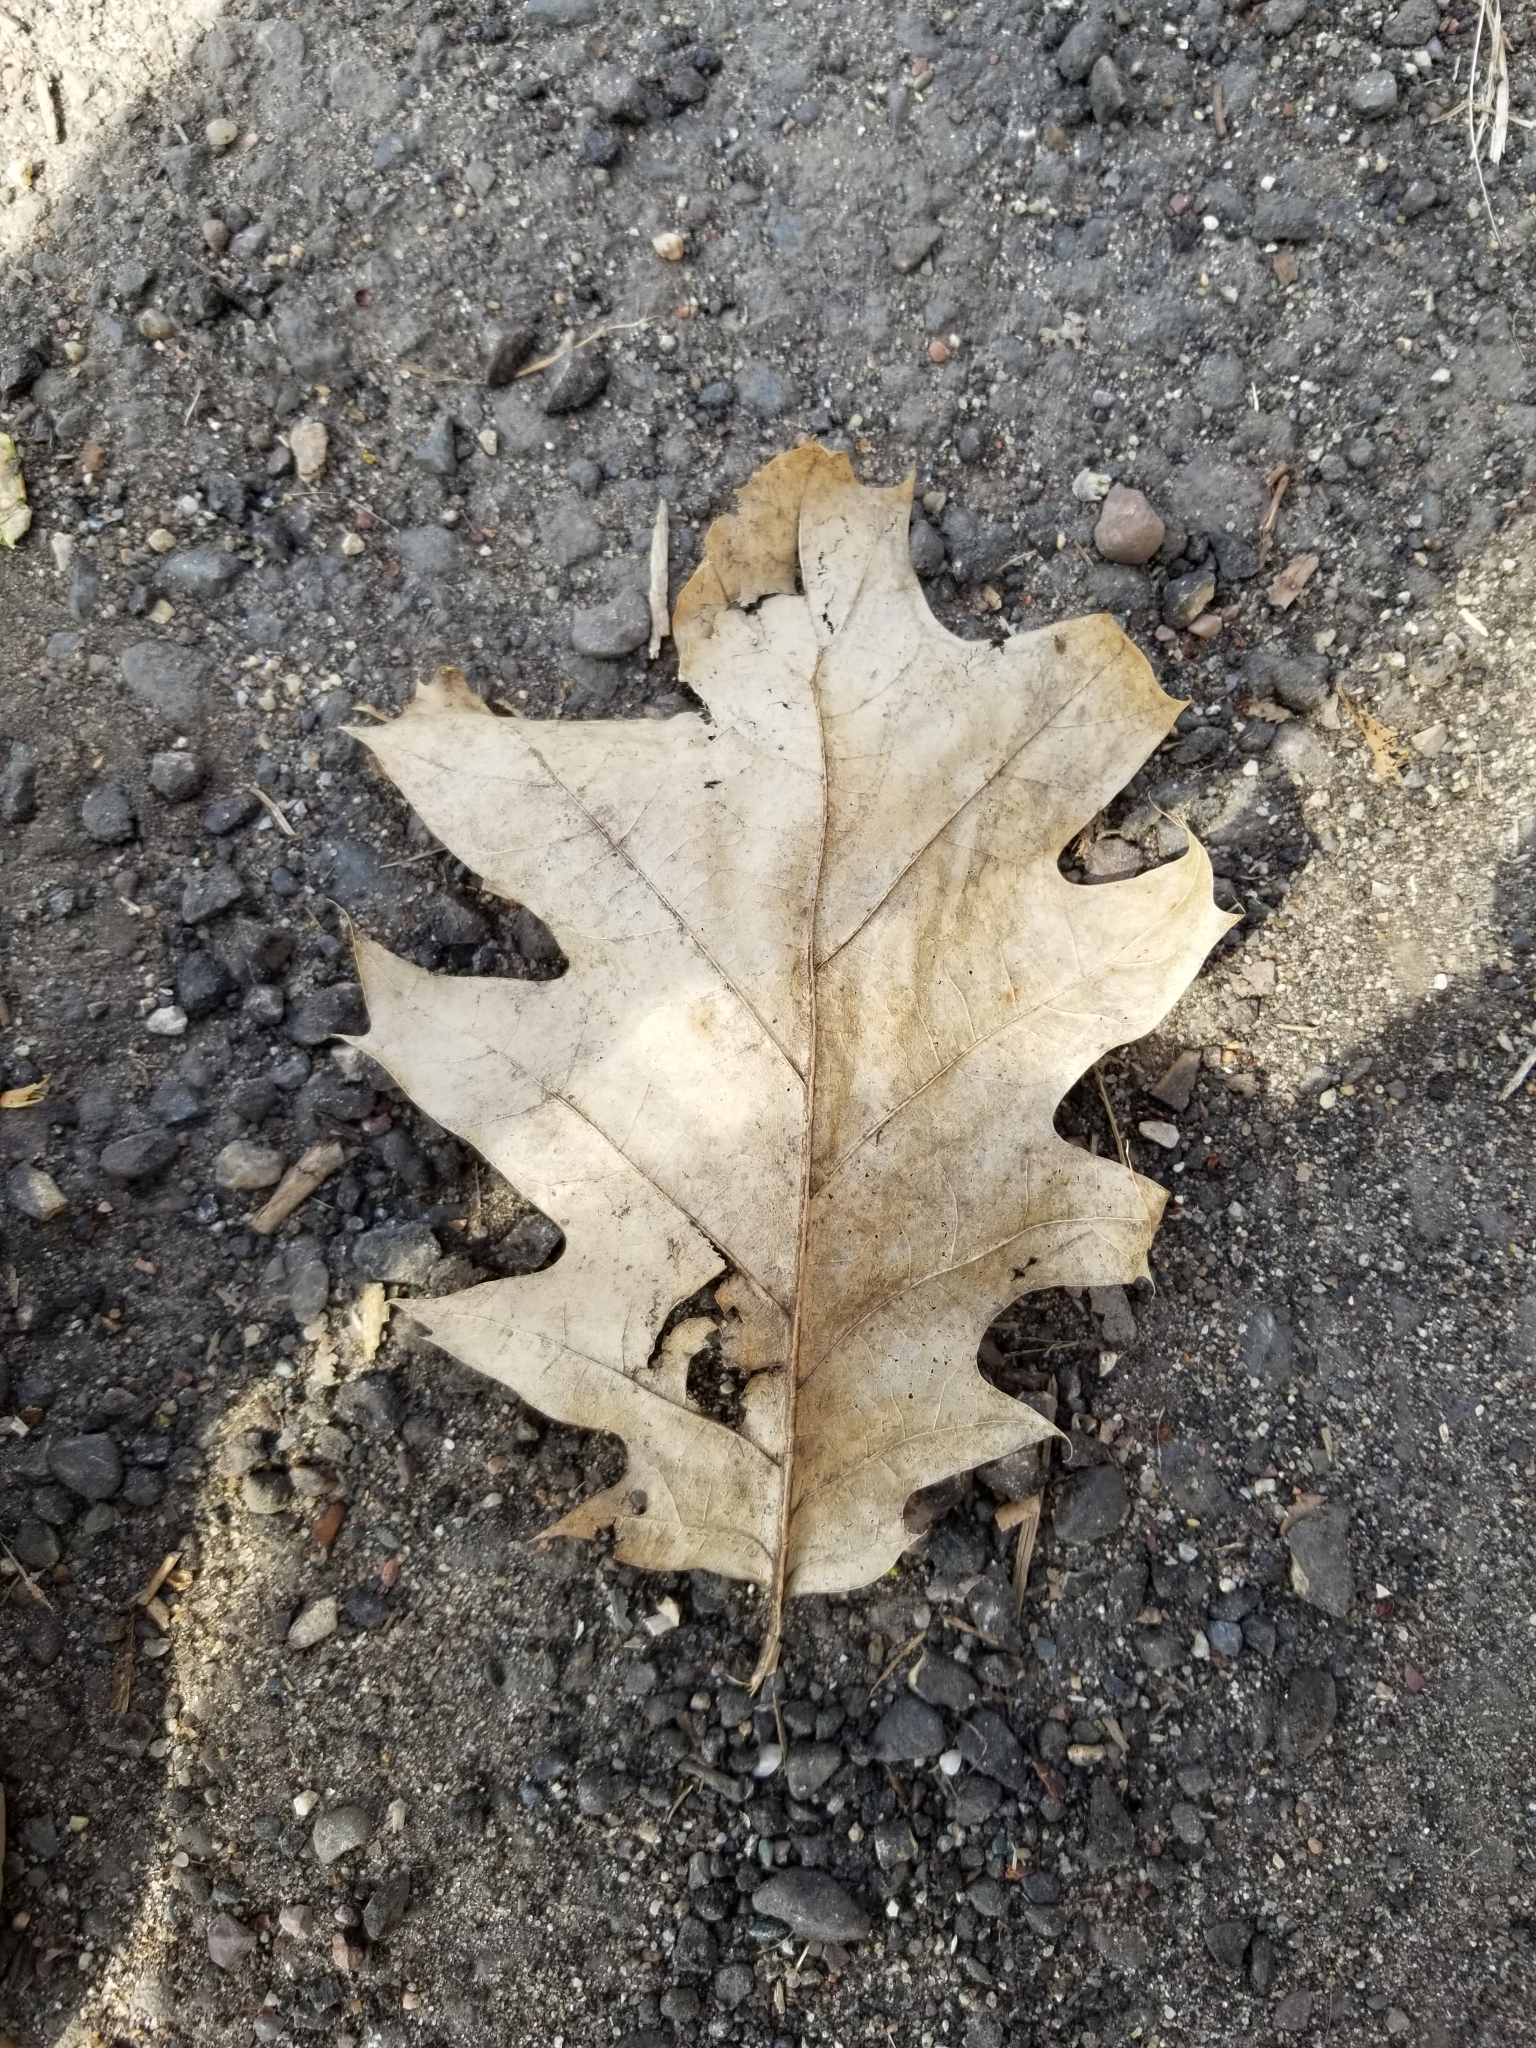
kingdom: Plantae
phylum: Tracheophyta
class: Magnoliopsida
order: Fagales
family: Fagaceae
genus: Quercus
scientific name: Quercus rubra
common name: Red oak
